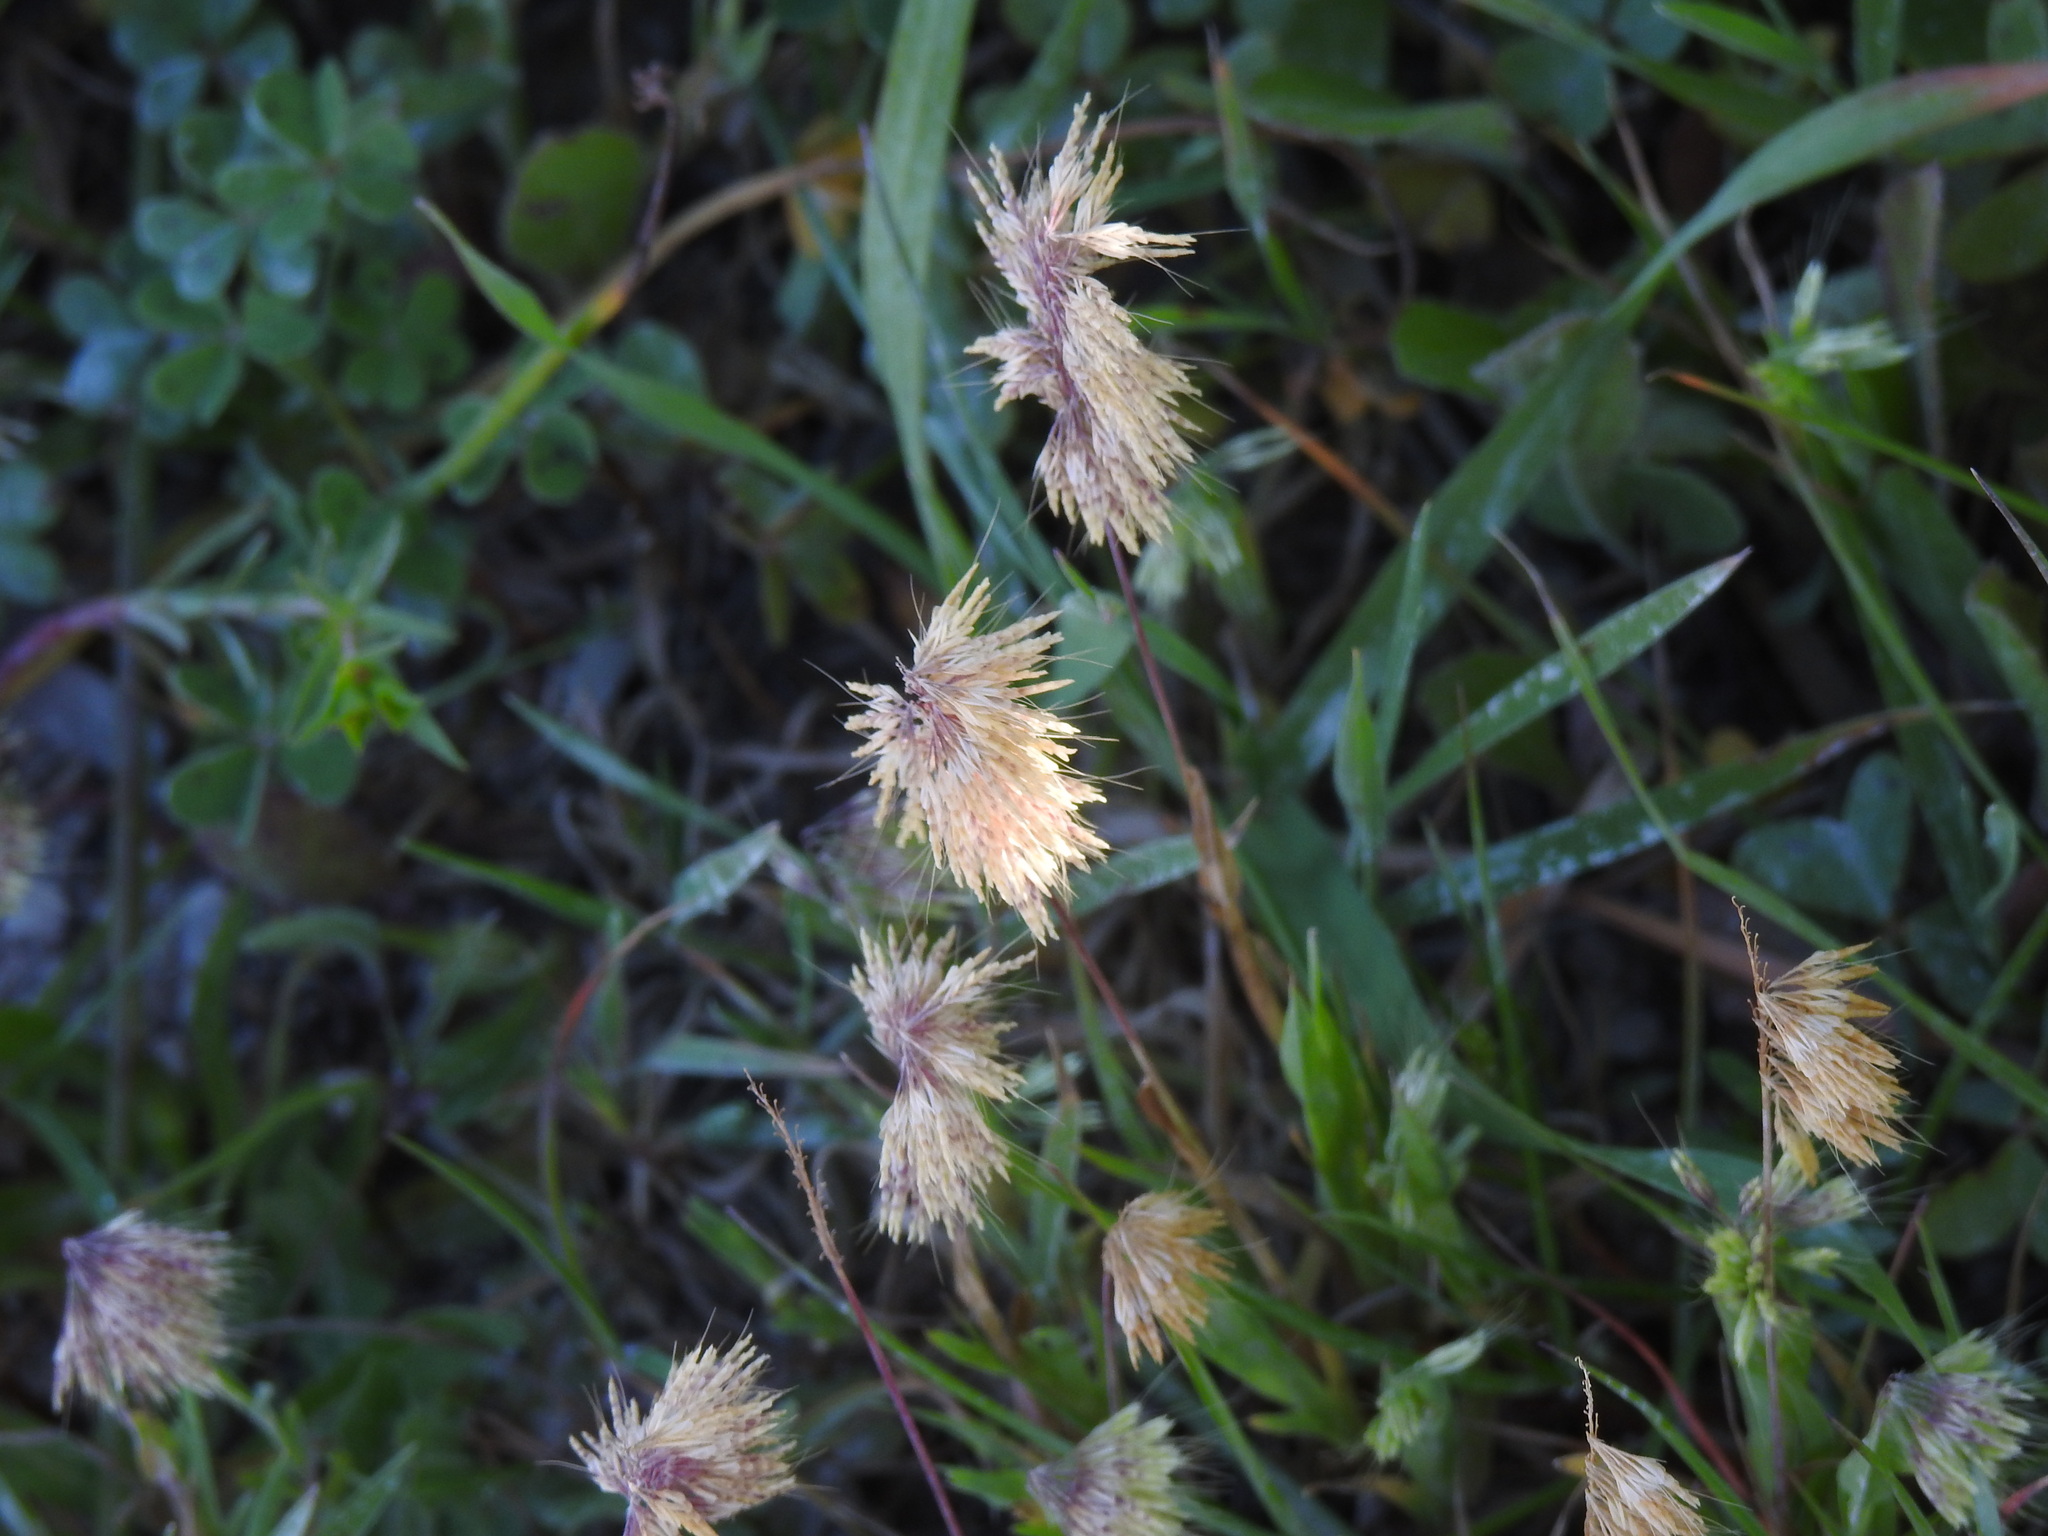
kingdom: Plantae
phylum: Tracheophyta
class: Liliopsida
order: Poales
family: Poaceae
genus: Lamarckia
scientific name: Lamarckia aurea
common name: Golden dog's-tail
